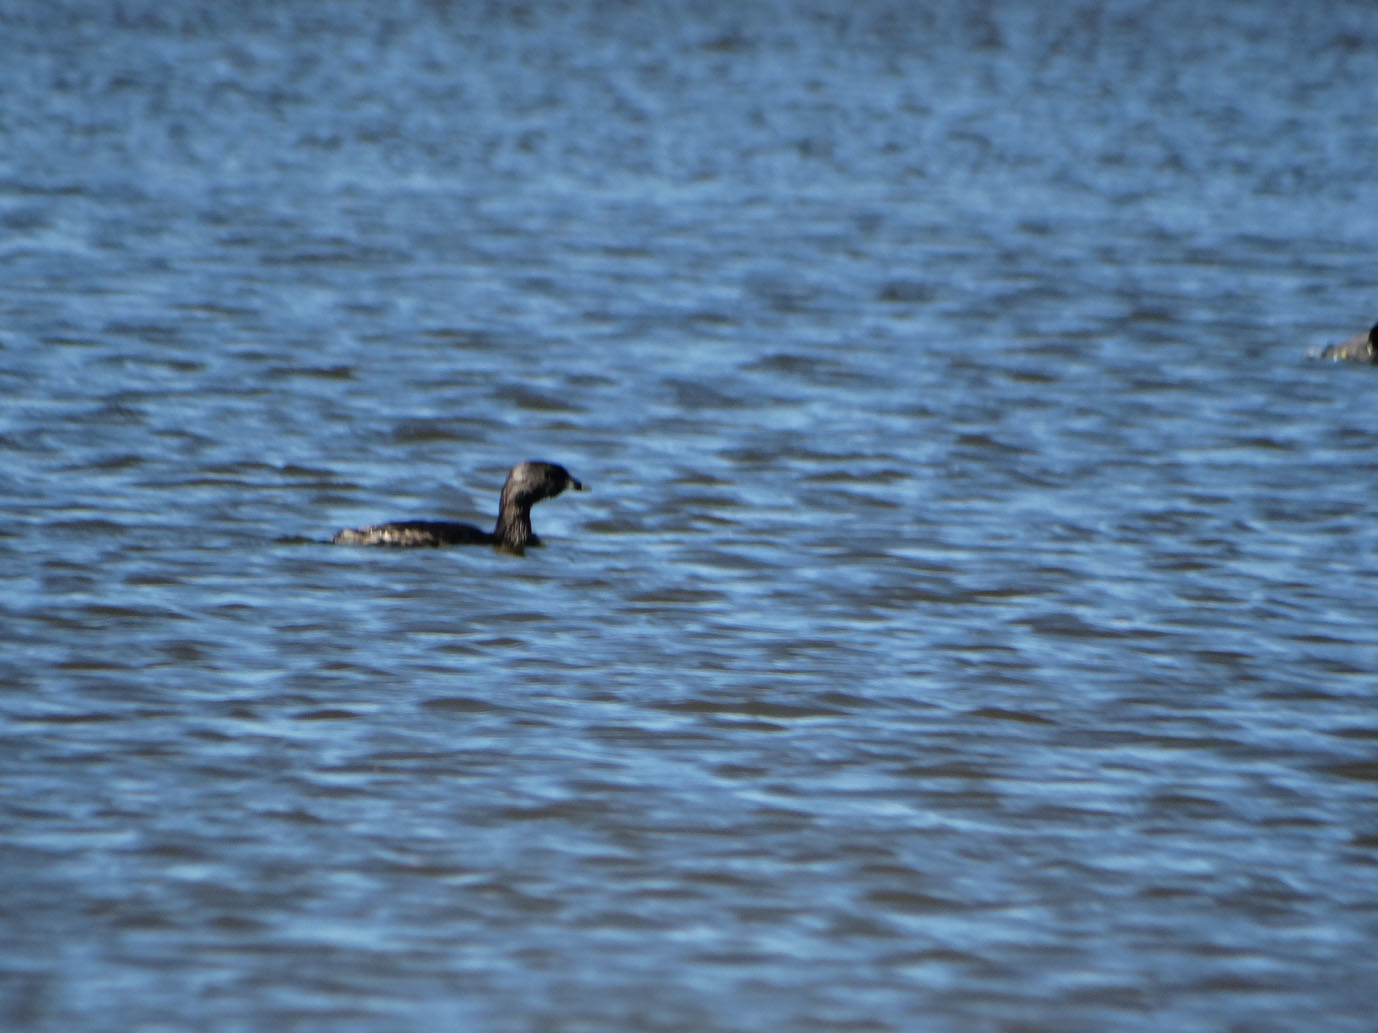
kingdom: Animalia
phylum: Chordata
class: Aves
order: Podicipediformes
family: Podicipedidae
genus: Podilymbus
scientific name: Podilymbus podiceps
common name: Pied-billed grebe
